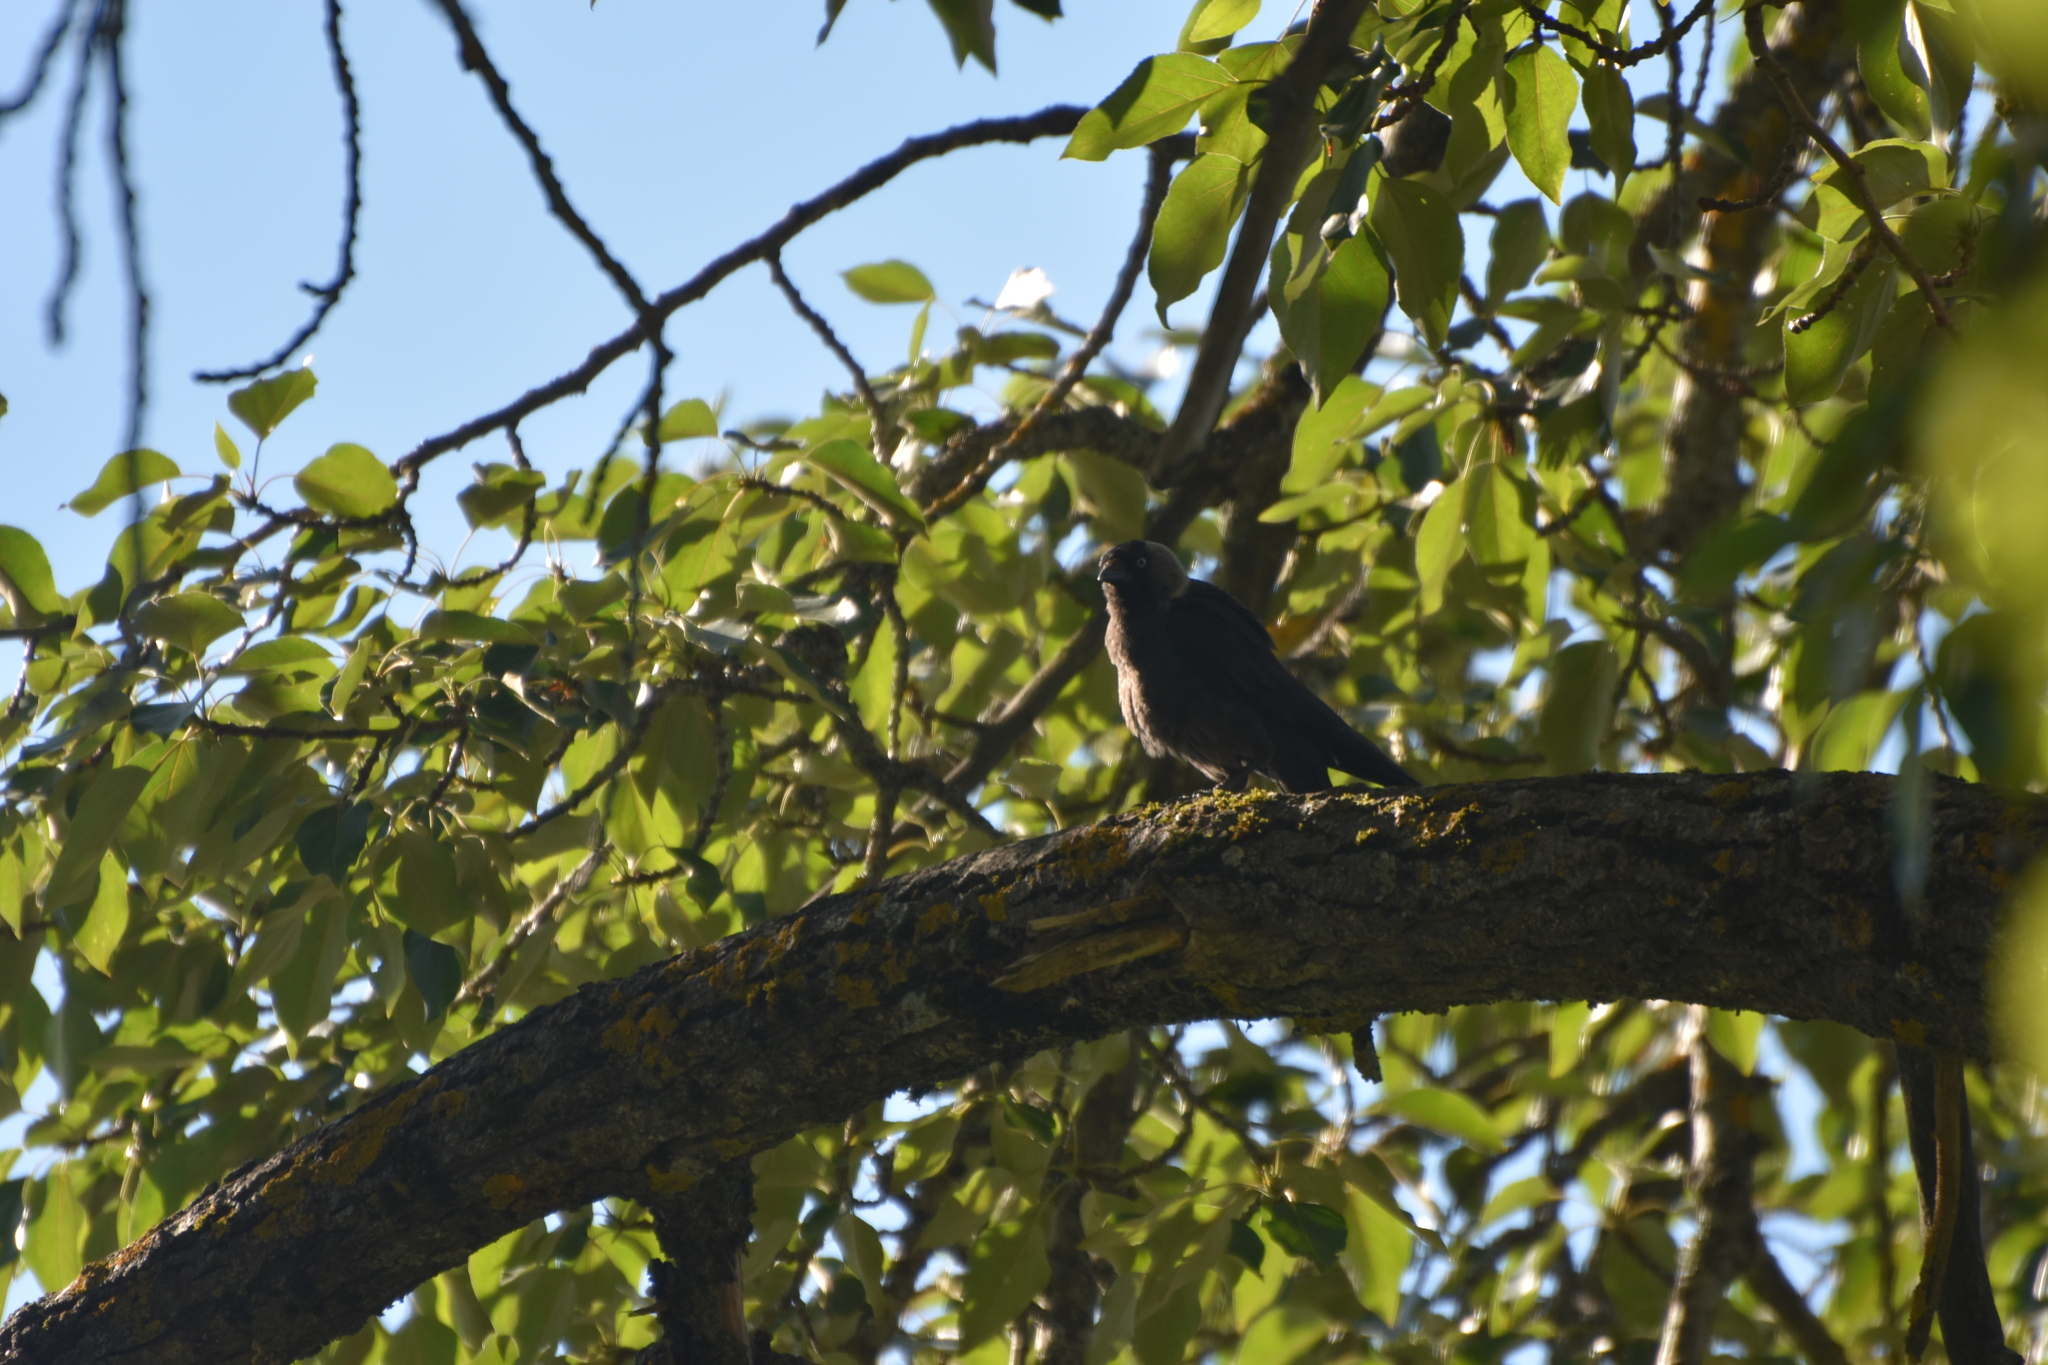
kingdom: Animalia
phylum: Chordata
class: Aves
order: Passeriformes
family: Corvidae
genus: Coloeus
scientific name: Coloeus monedula
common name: Western jackdaw
